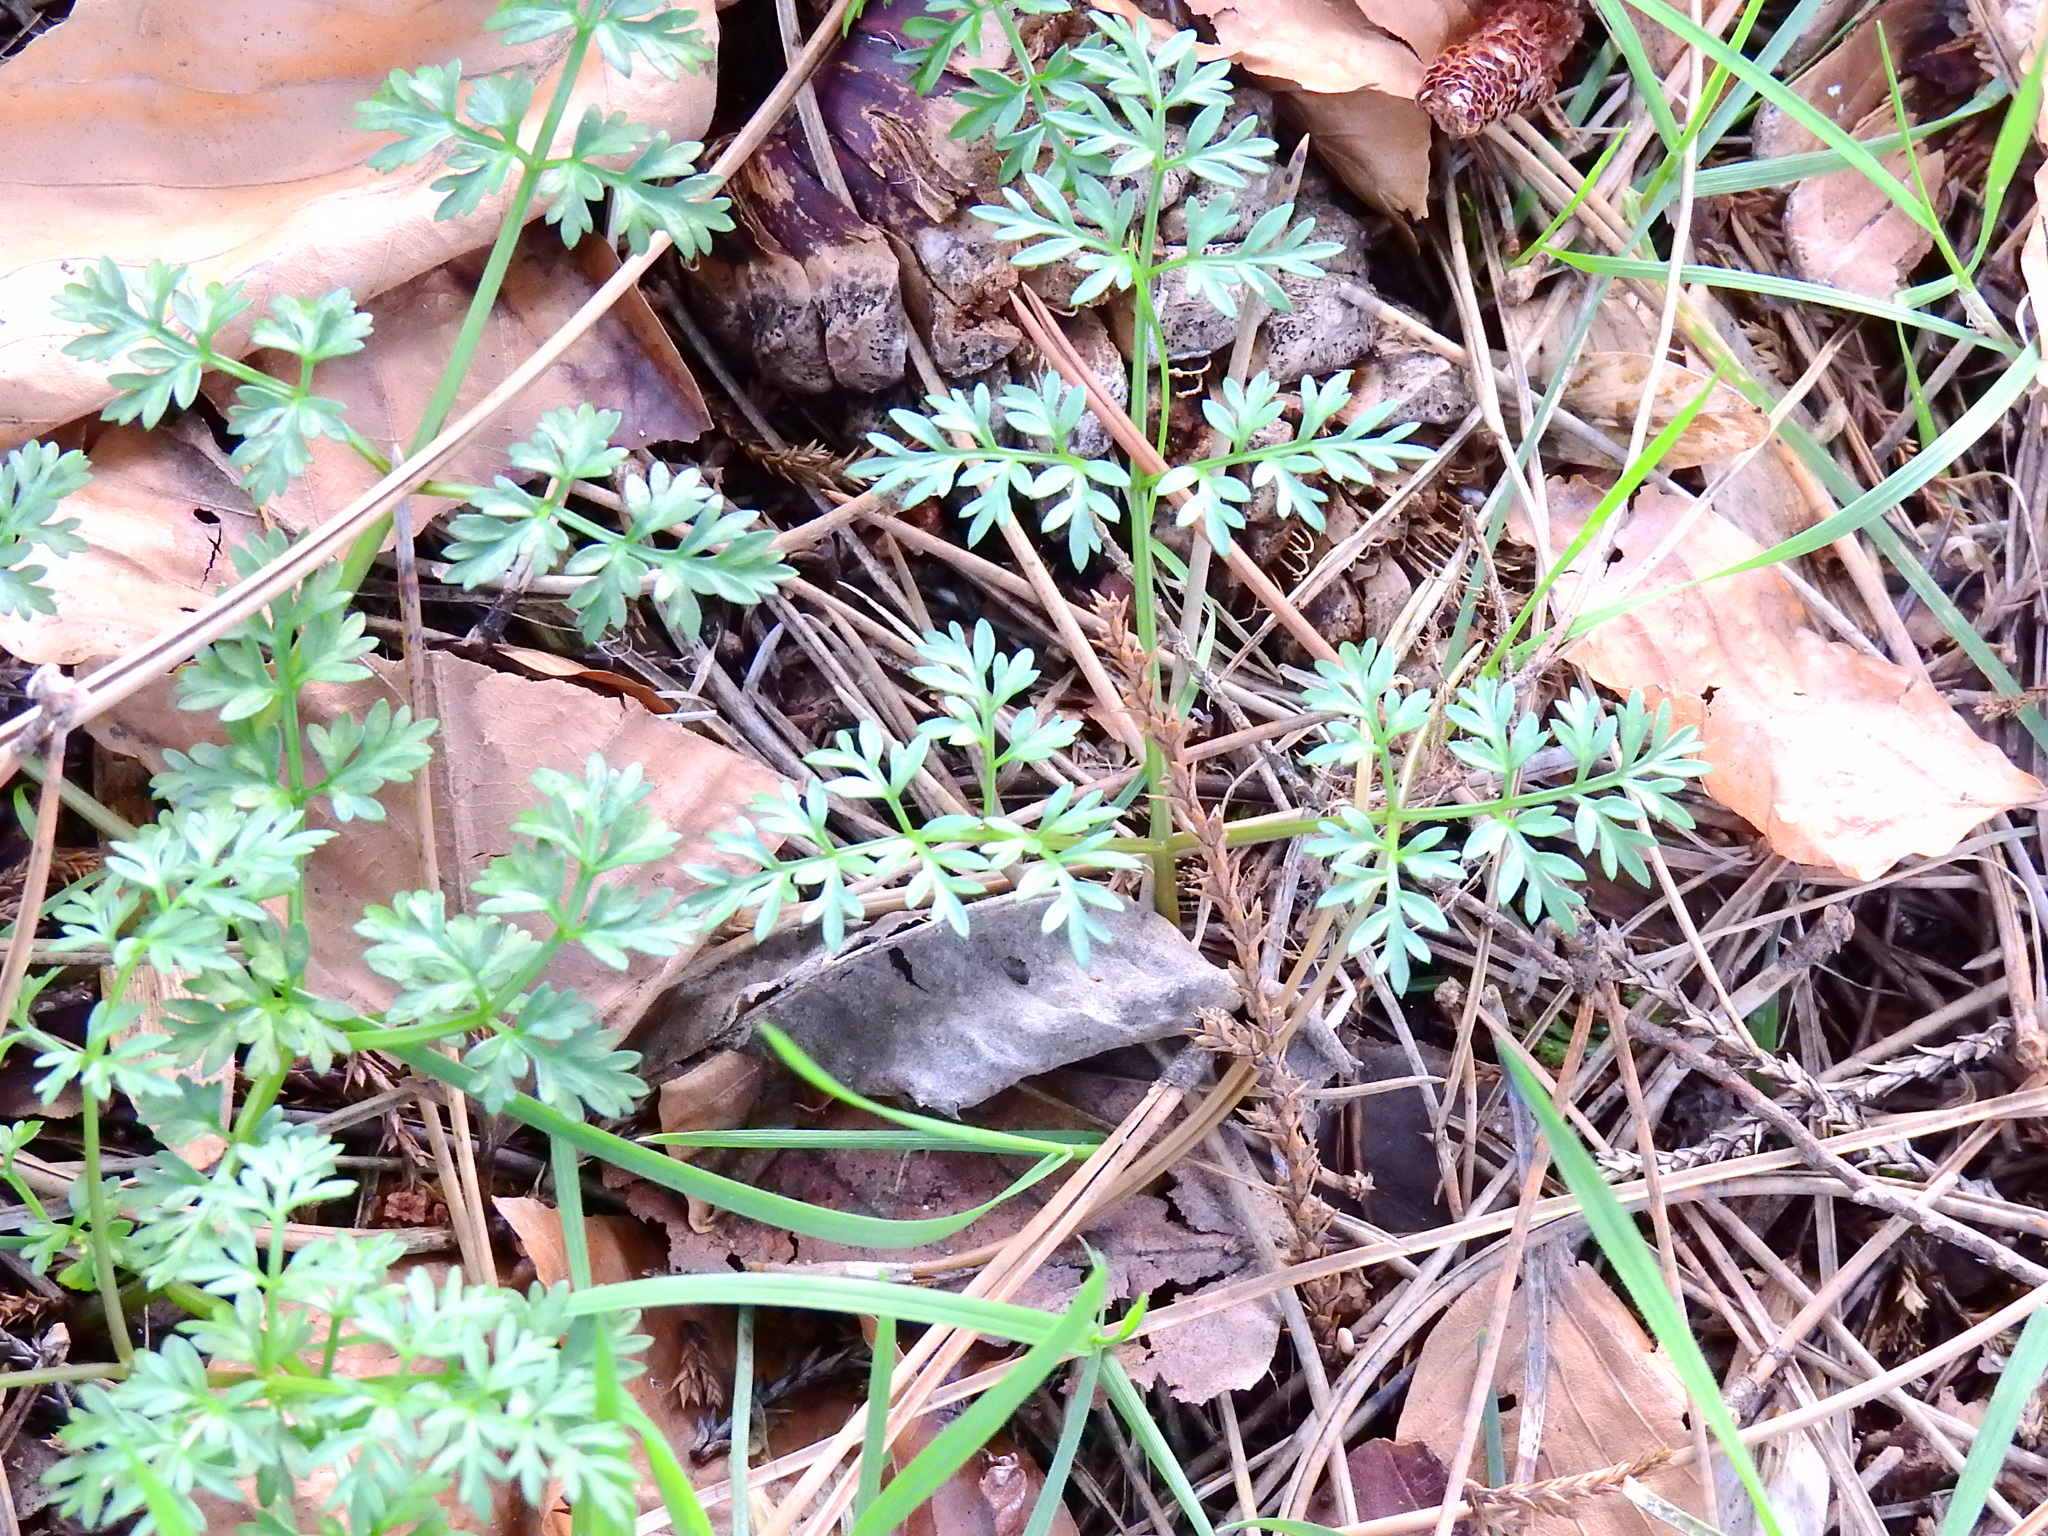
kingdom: Plantae
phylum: Tracheophyta
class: Magnoliopsida
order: Apiales
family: Apiaceae
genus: Conopodium
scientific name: Conopodium majus
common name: Pignut
